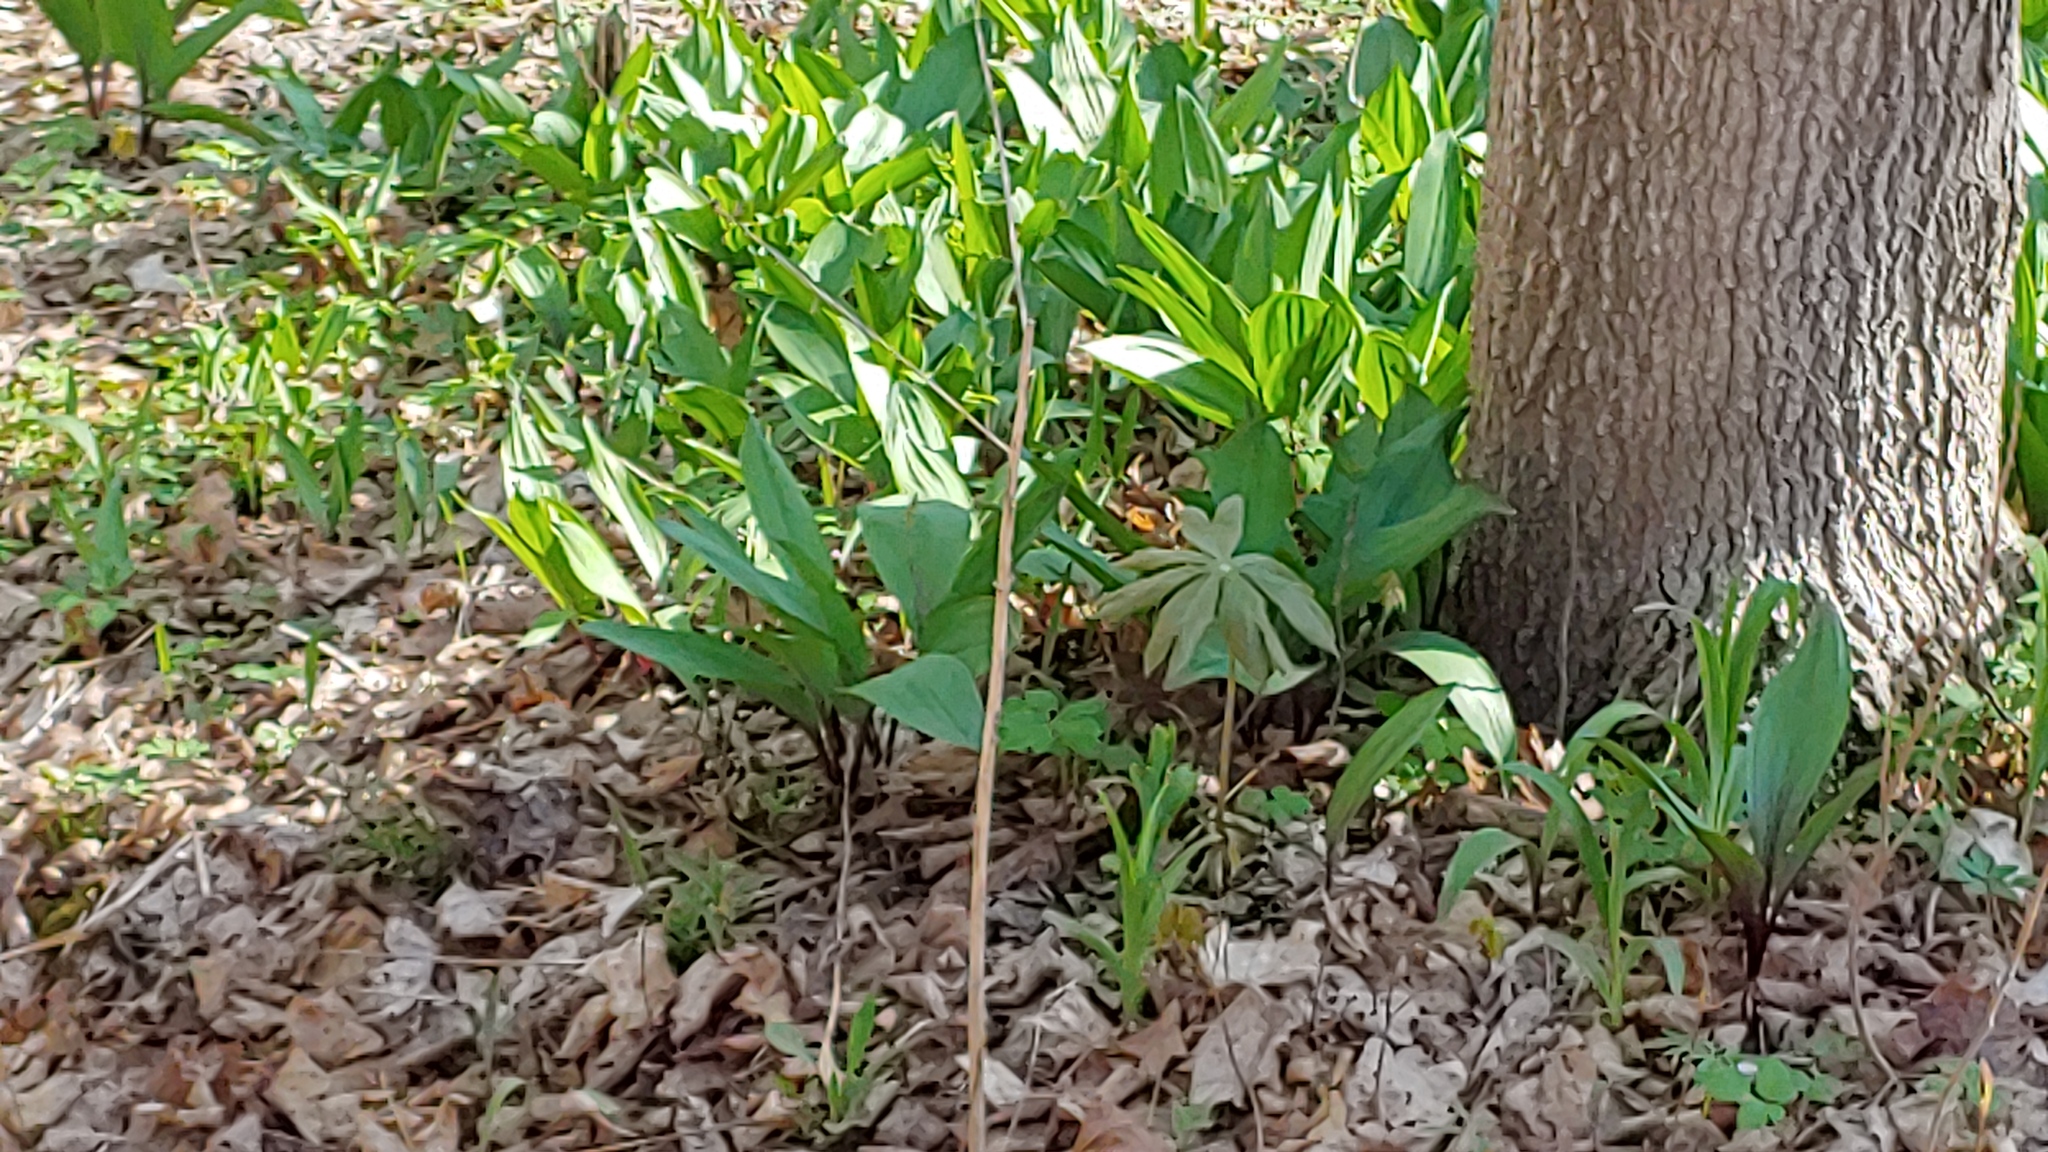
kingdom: Plantae
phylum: Tracheophyta
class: Liliopsida
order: Asparagales
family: Amaryllidaceae
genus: Allium
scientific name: Allium tricoccum
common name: Ramp
